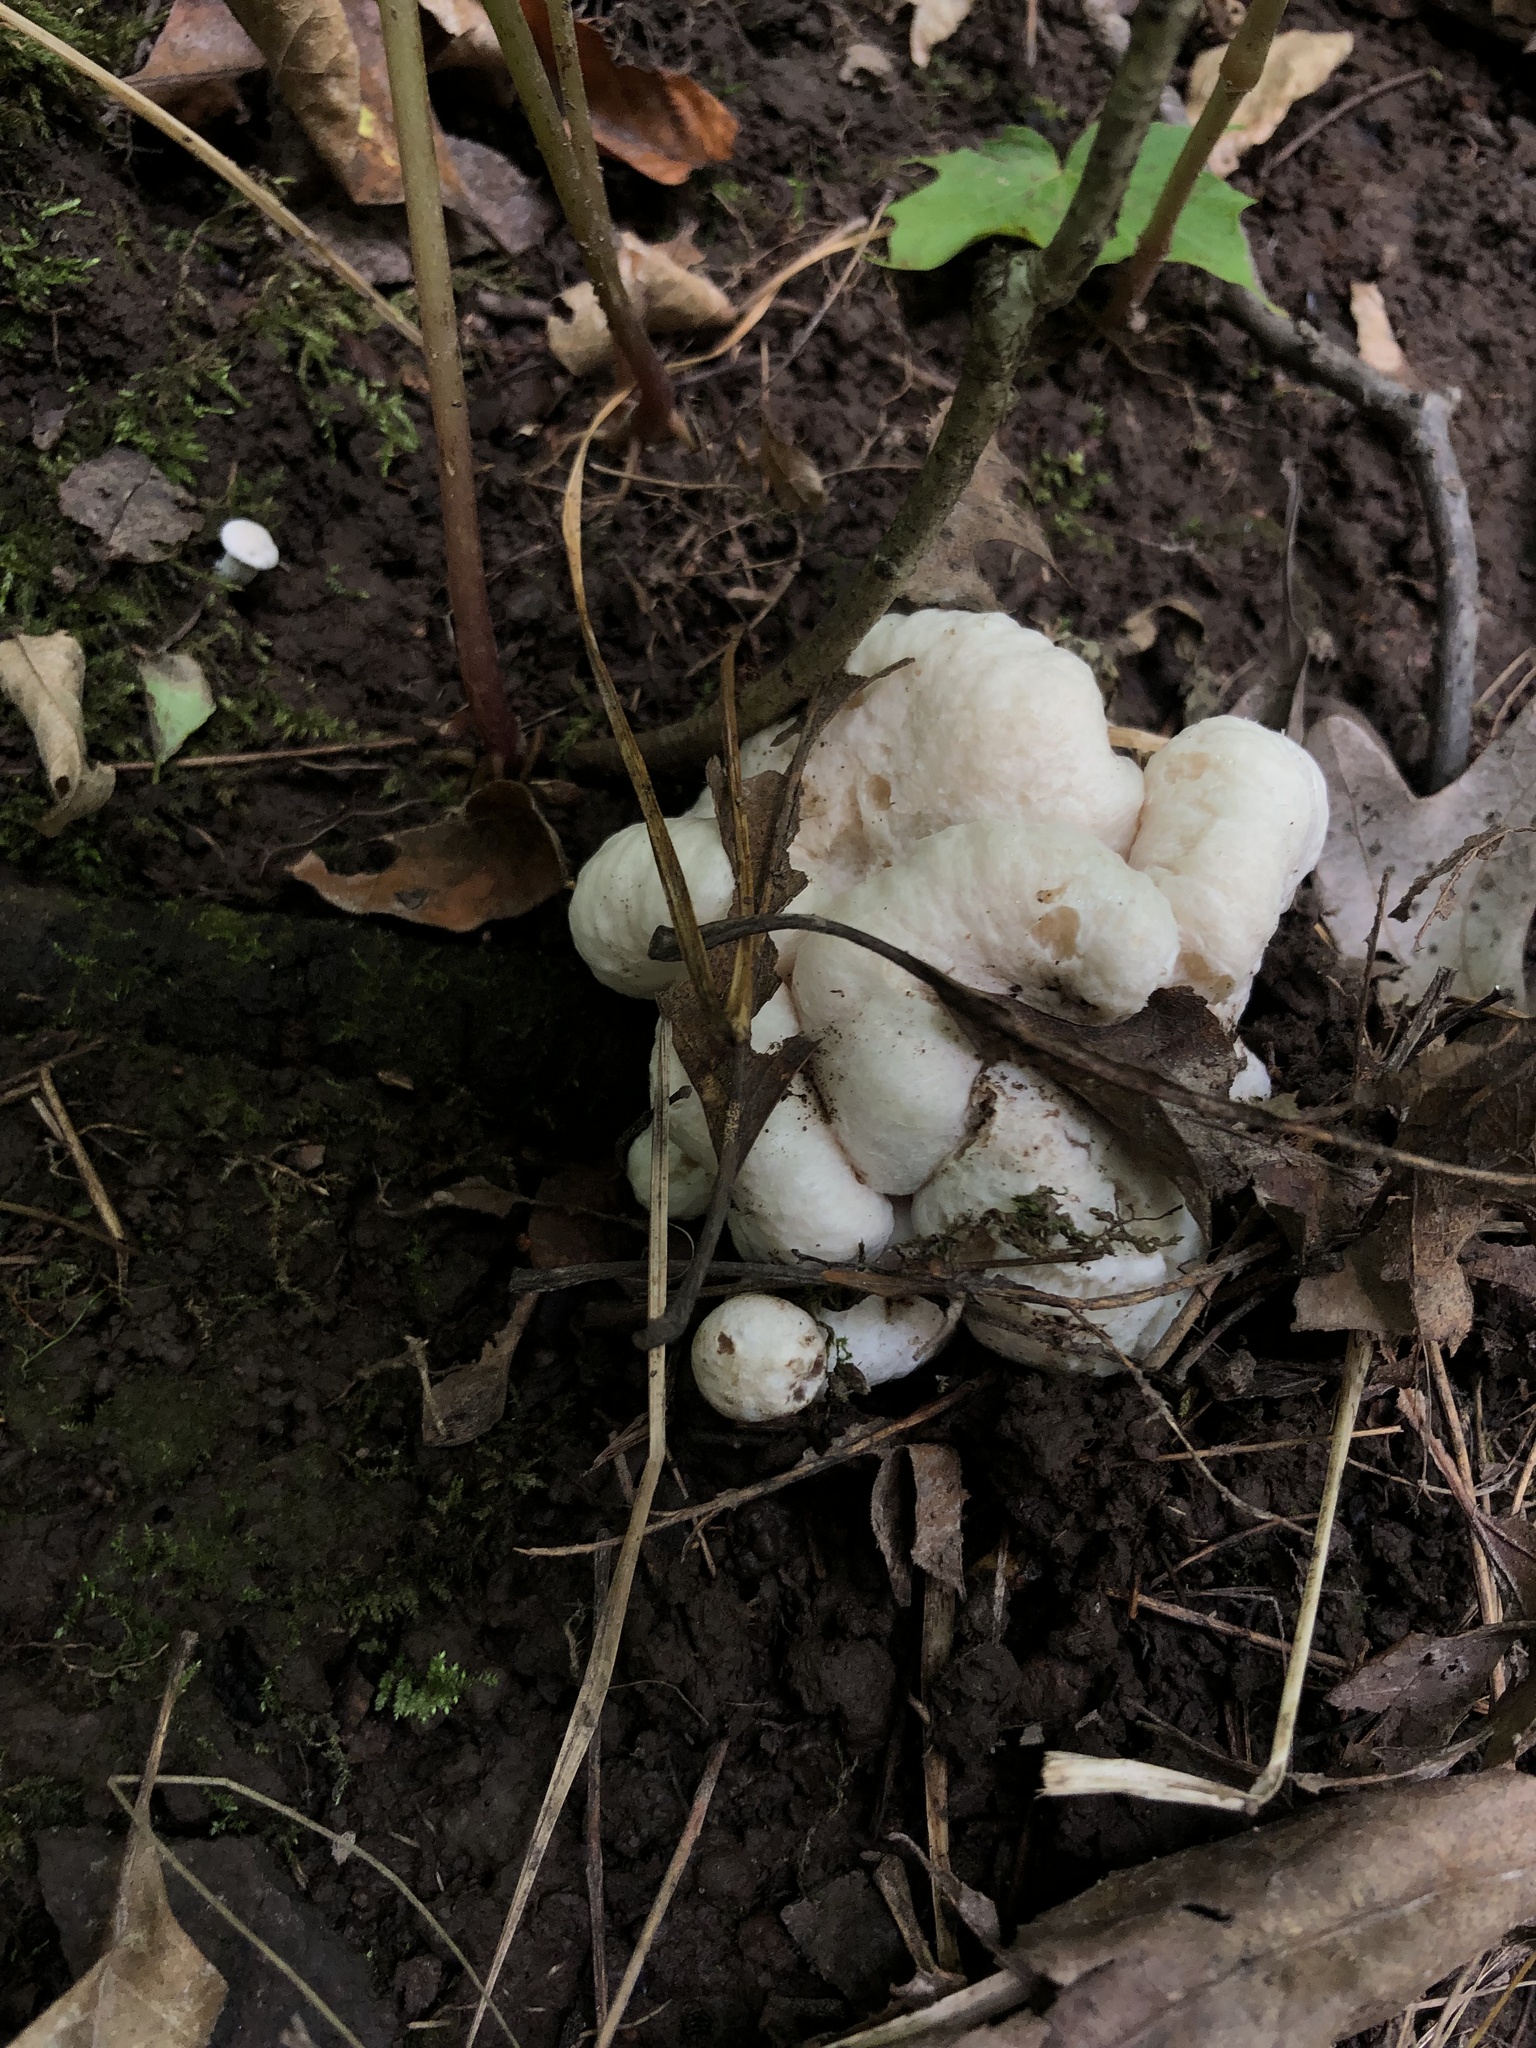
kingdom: Fungi
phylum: Basidiomycota
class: Agaricomycetes
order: Agaricales
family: Entolomataceae
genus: Entoloma
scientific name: Entoloma abortivum
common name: Aborted entoloma
